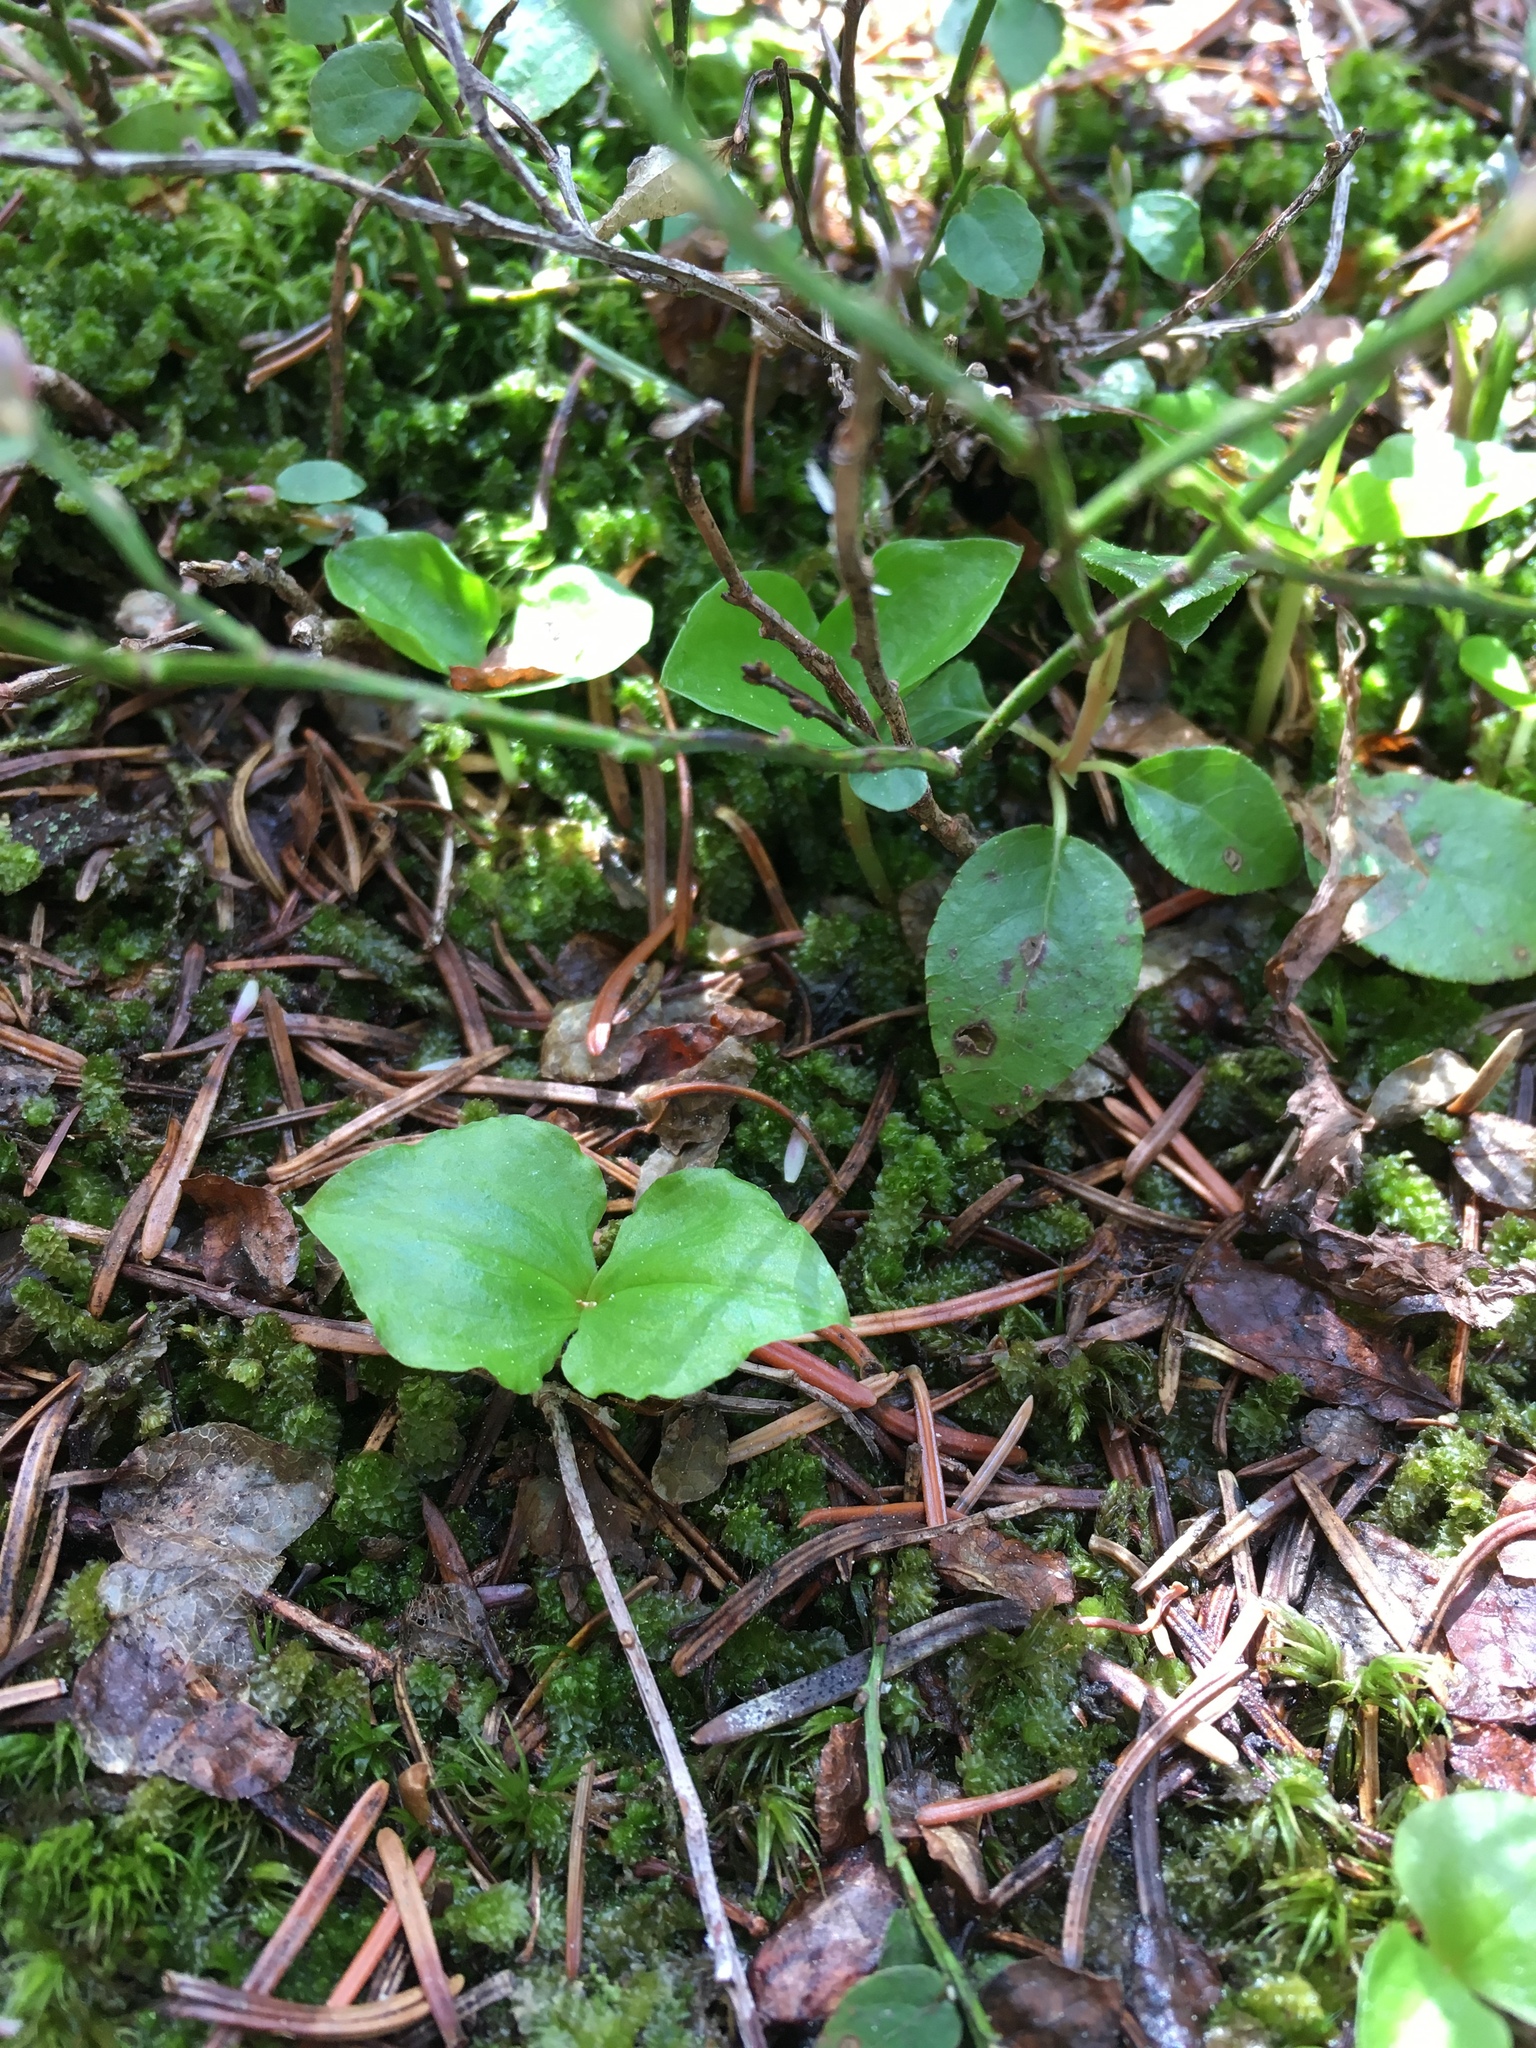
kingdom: Plantae
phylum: Tracheophyta
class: Liliopsida
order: Asparagales
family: Orchidaceae
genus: Neottia
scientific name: Neottia cordata
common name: Lesser twayblade
